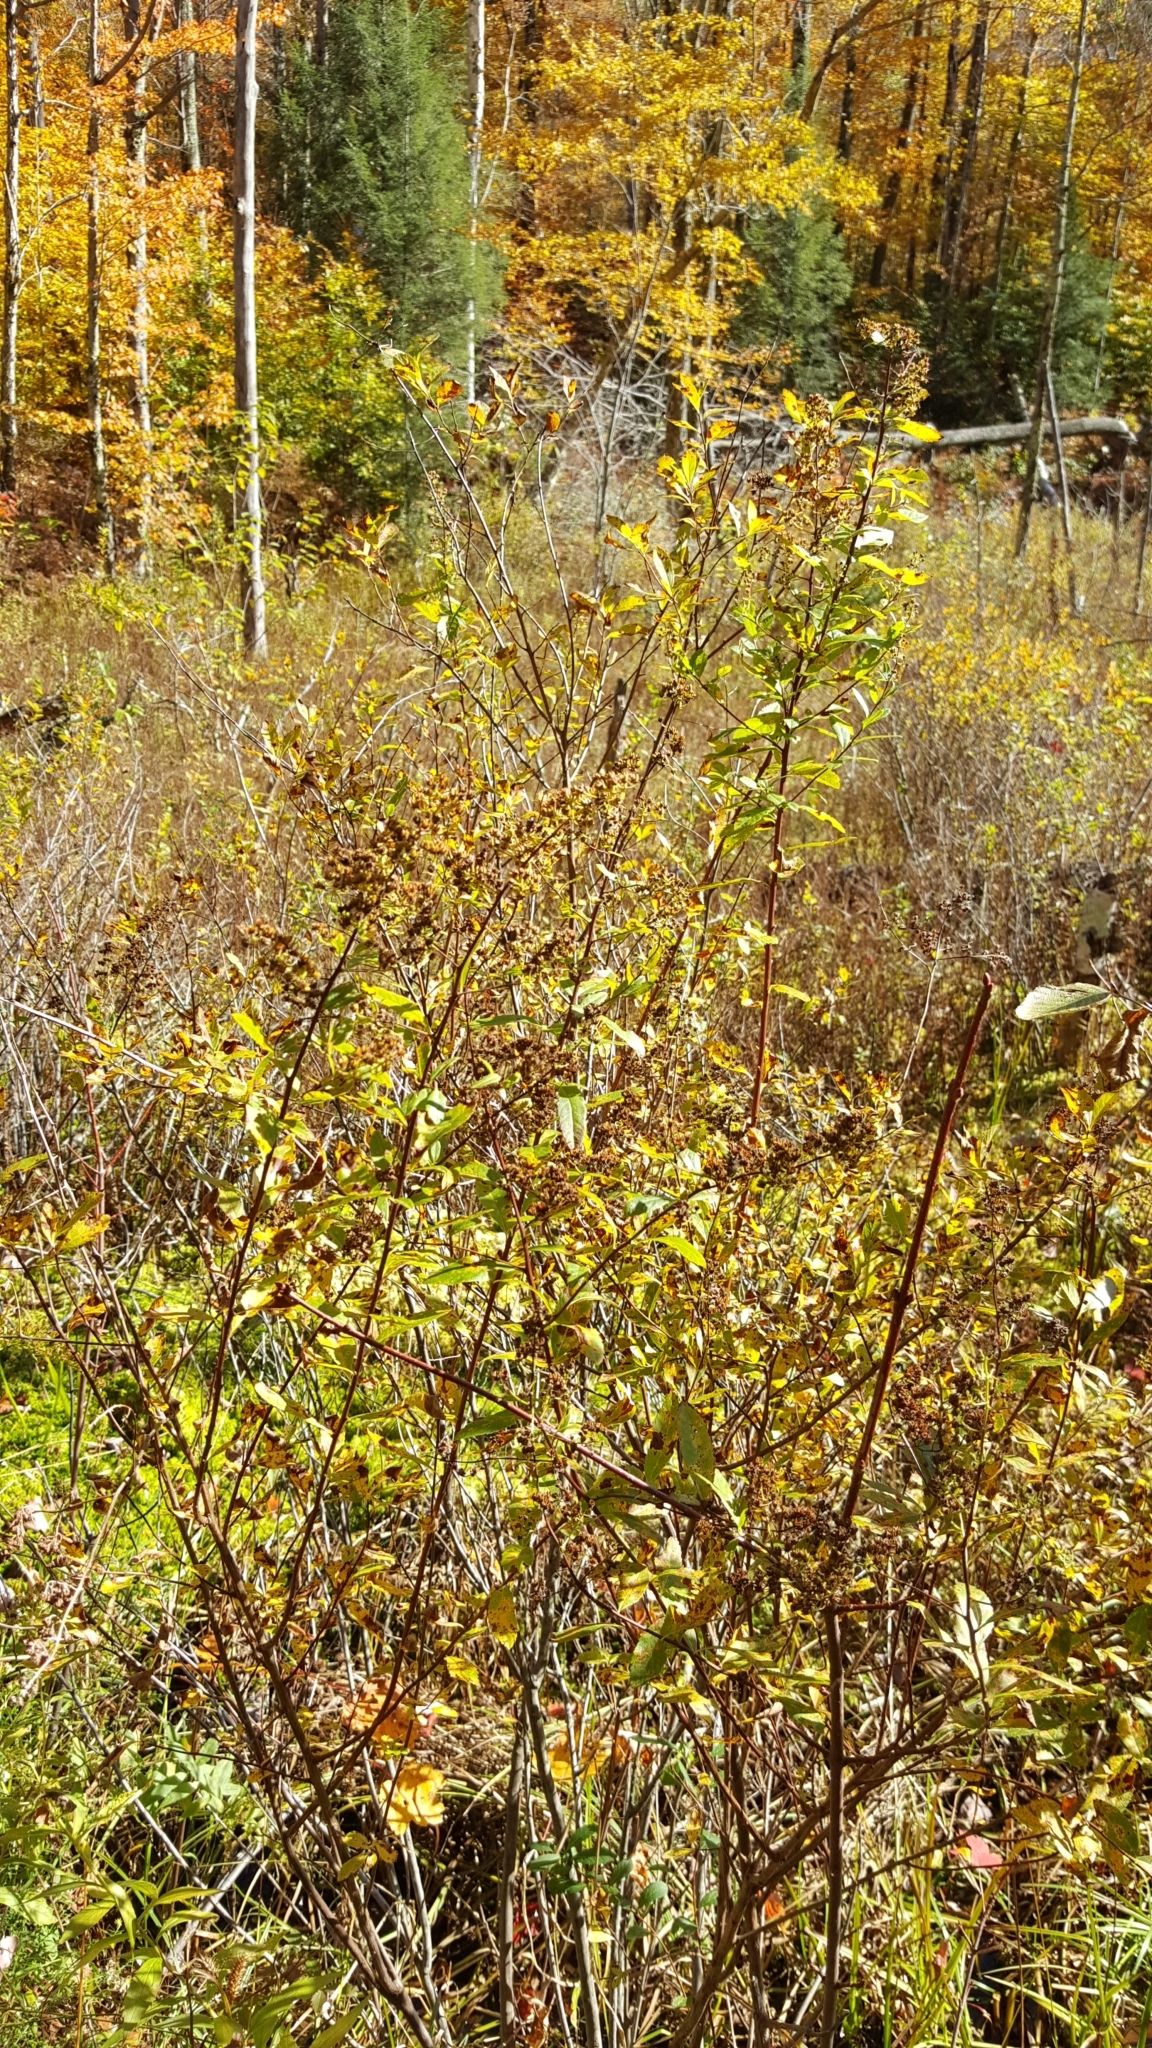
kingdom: Plantae
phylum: Tracheophyta
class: Magnoliopsida
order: Rosales
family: Rosaceae
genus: Spiraea
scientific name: Spiraea alba
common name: Pale bridewort
